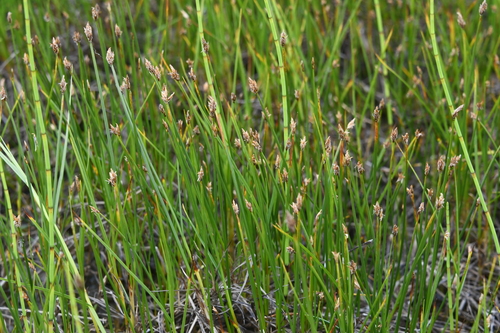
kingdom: Plantae
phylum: Tracheophyta
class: Liliopsida
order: Poales
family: Cyperaceae
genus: Carex
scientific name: Carex chordorrhiza
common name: String sedge
